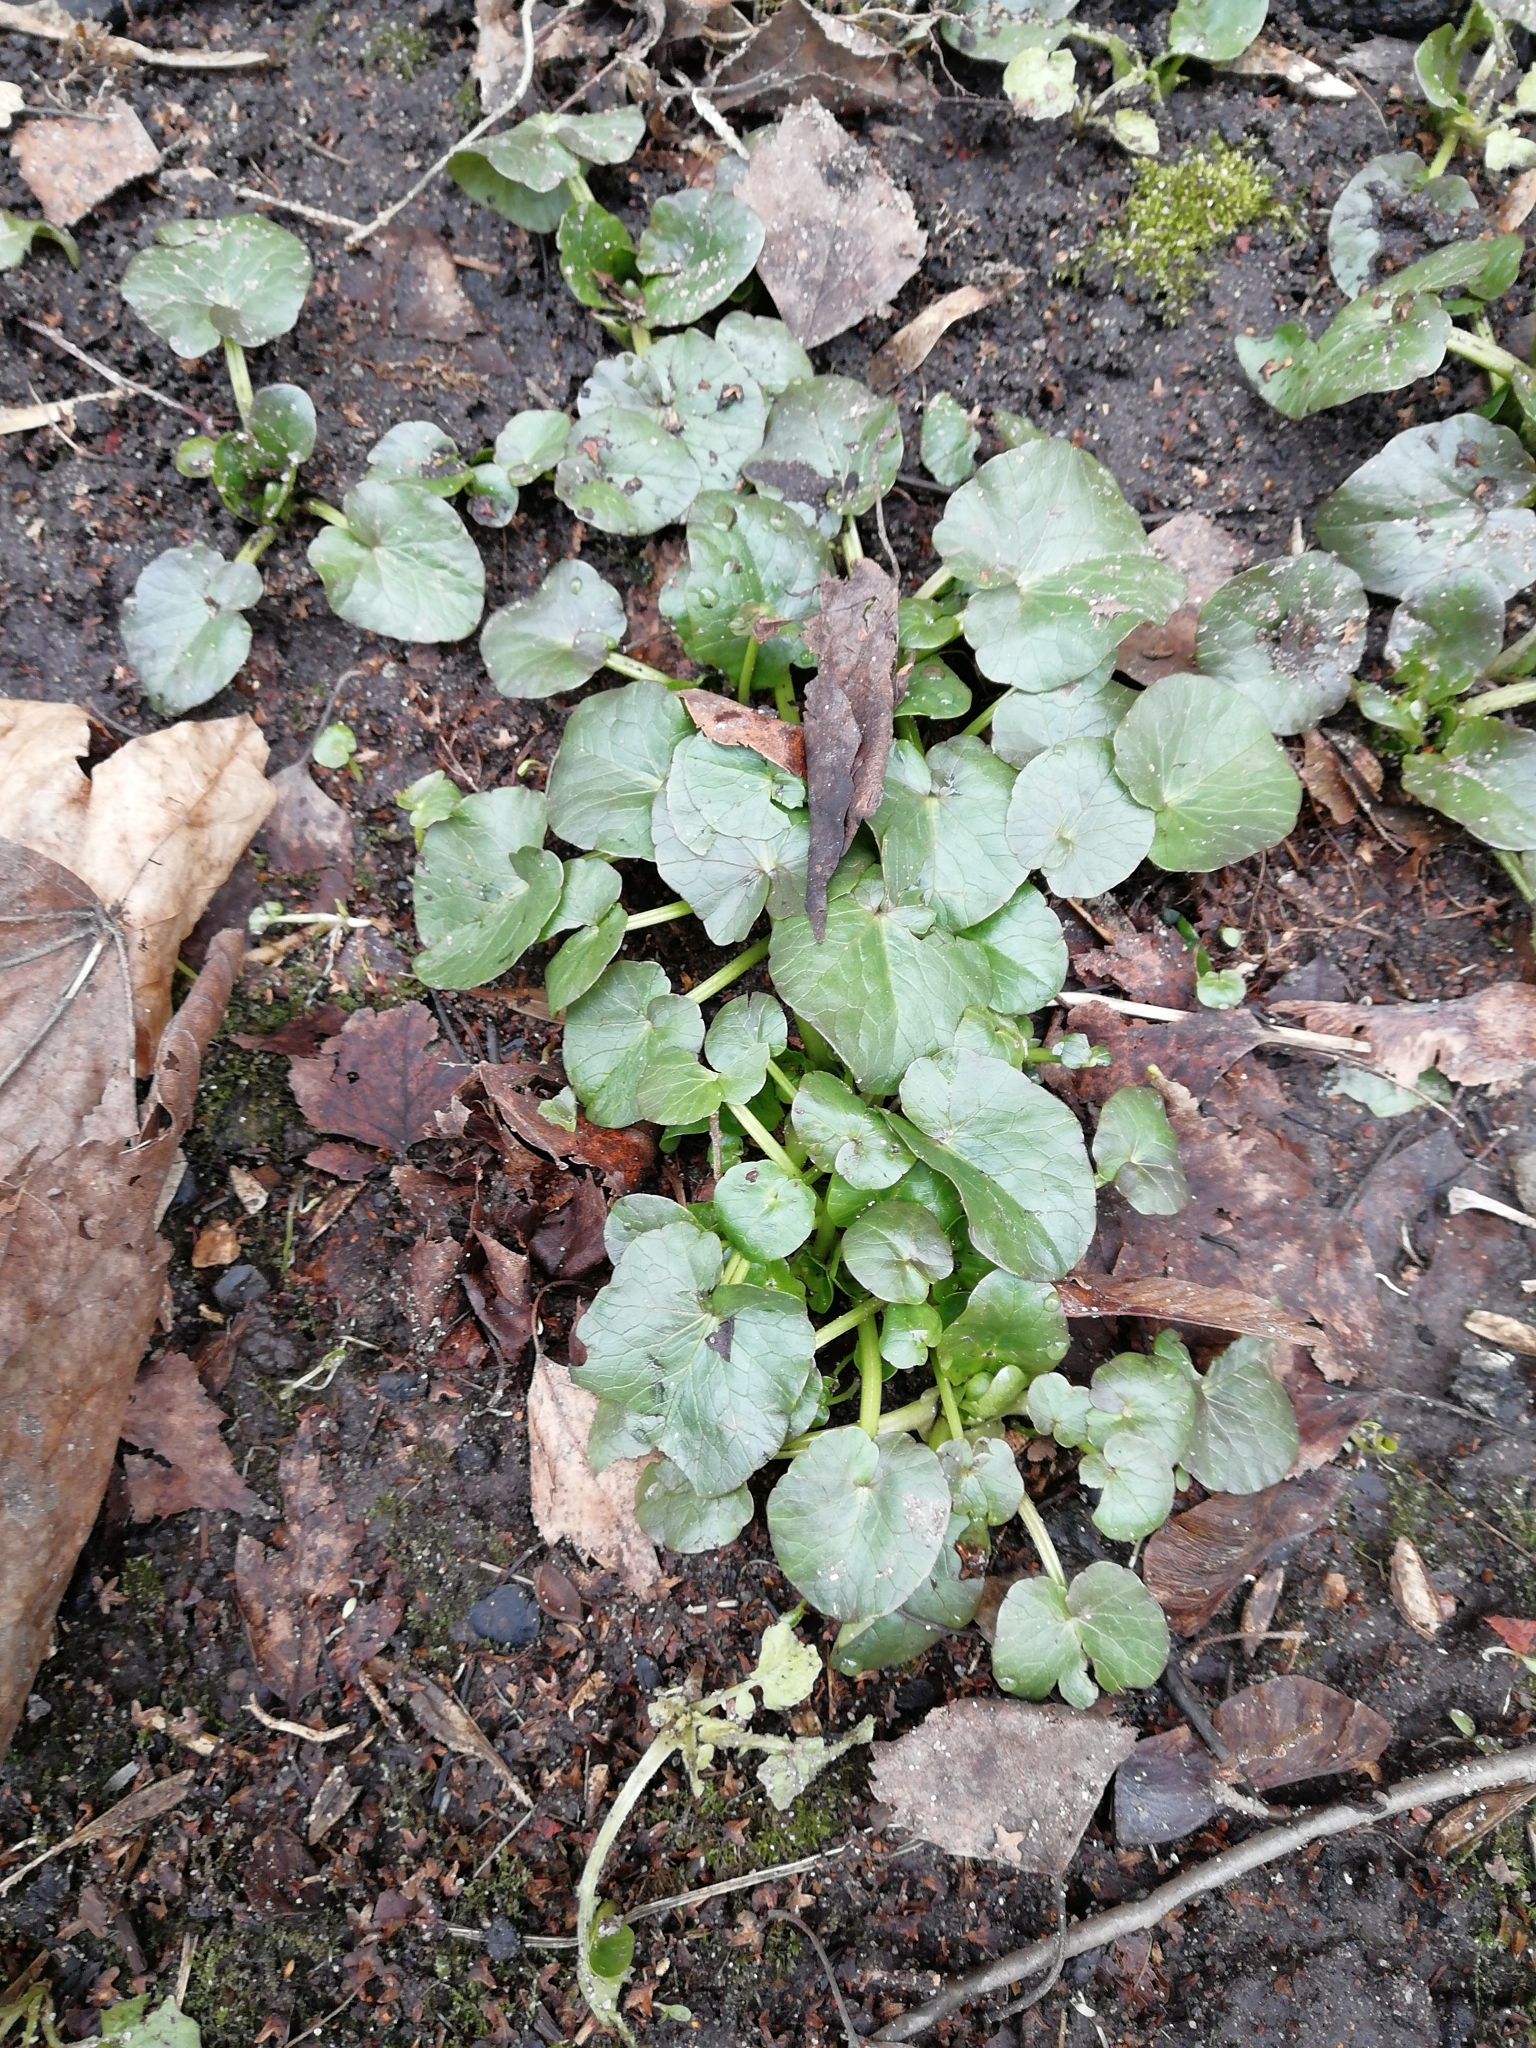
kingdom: Plantae
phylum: Tracheophyta
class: Magnoliopsida
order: Ranunculales
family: Ranunculaceae
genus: Ficaria
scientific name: Ficaria verna
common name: Lesser celandine
